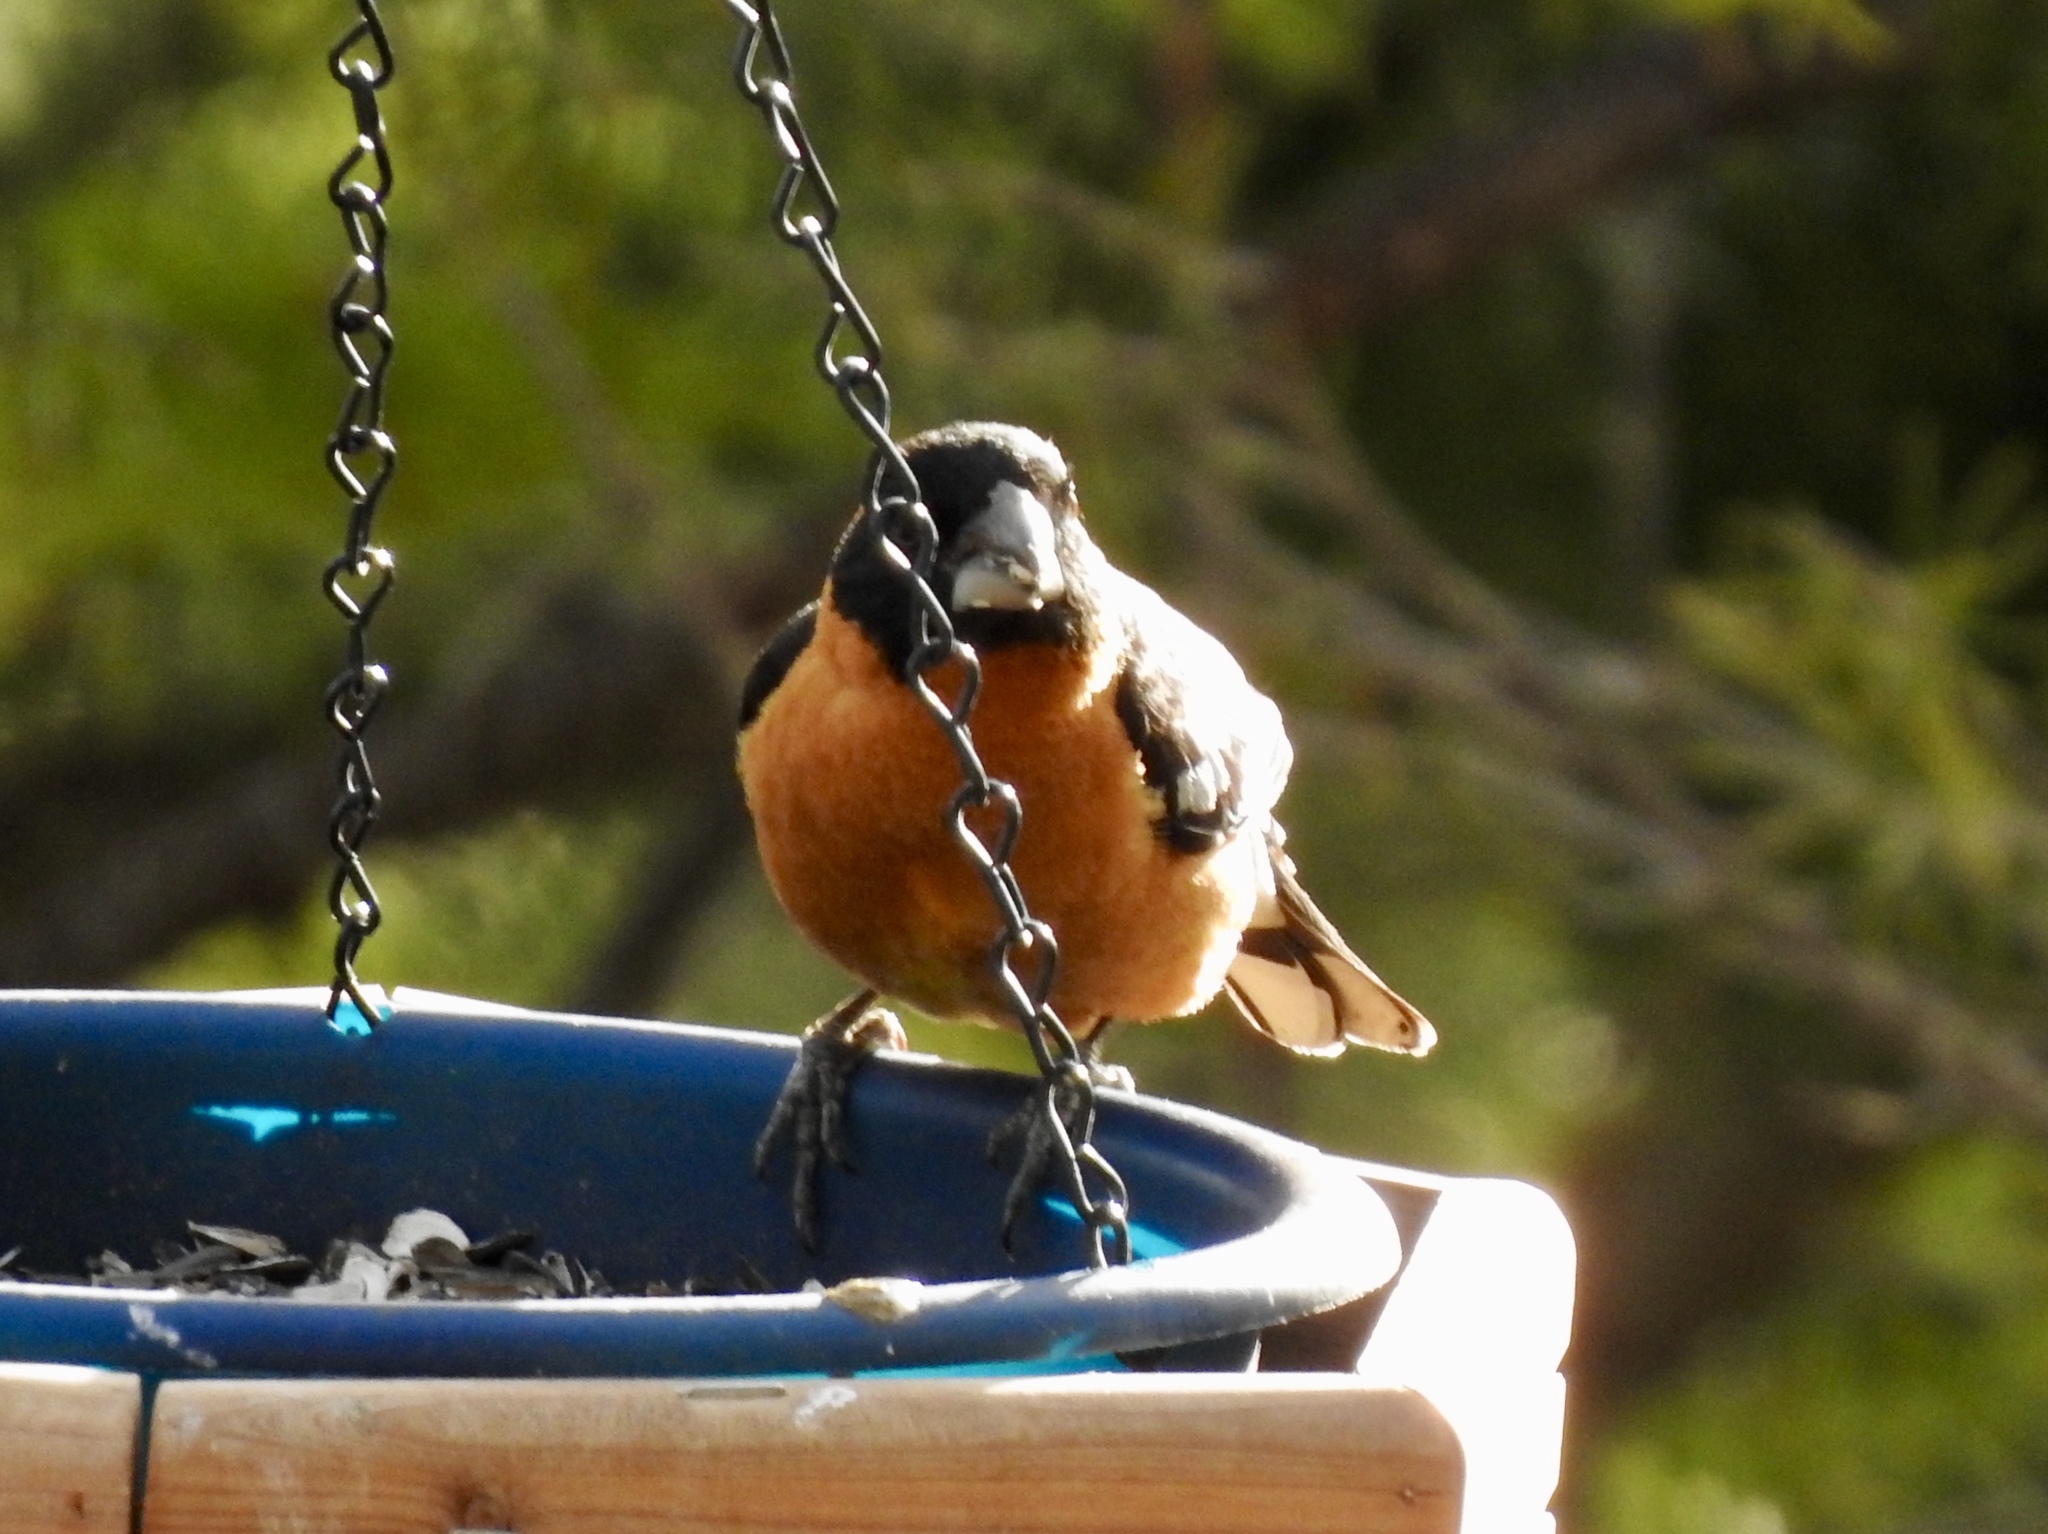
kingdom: Animalia
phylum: Chordata
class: Aves
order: Passeriformes
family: Cardinalidae
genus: Pheucticus
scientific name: Pheucticus melanocephalus
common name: Black-headed grosbeak
